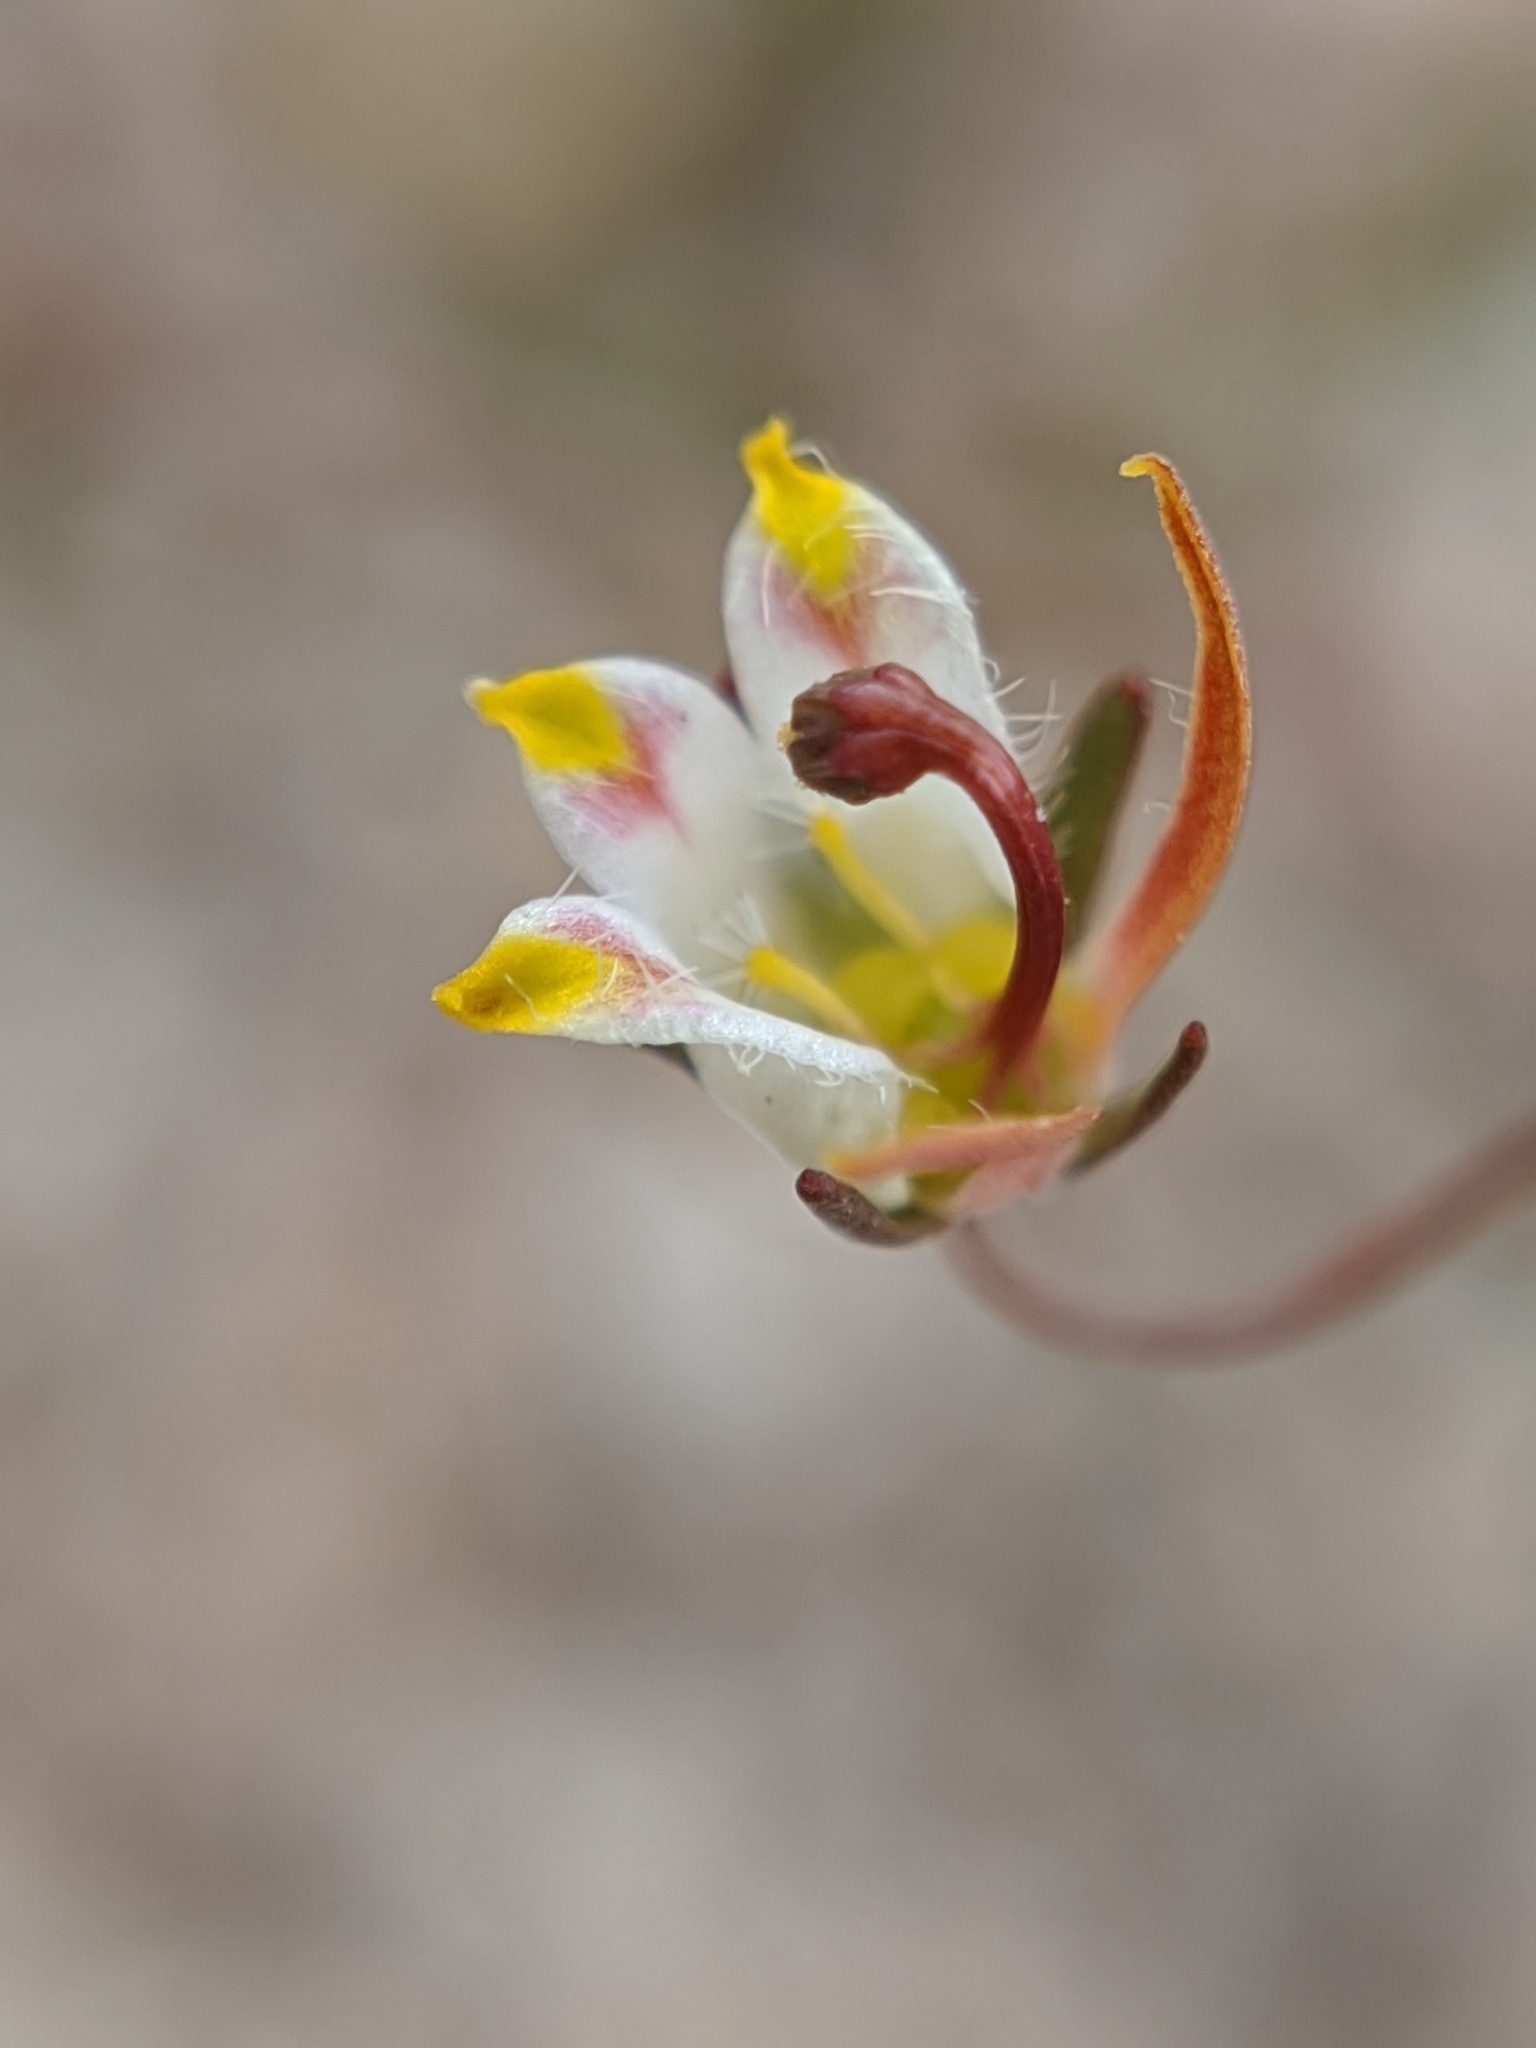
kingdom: Plantae
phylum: Tracheophyta
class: Magnoliopsida
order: Asterales
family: Campanulaceae
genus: Nemacladus
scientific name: Nemacladus tenuis
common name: Desert threadplant
